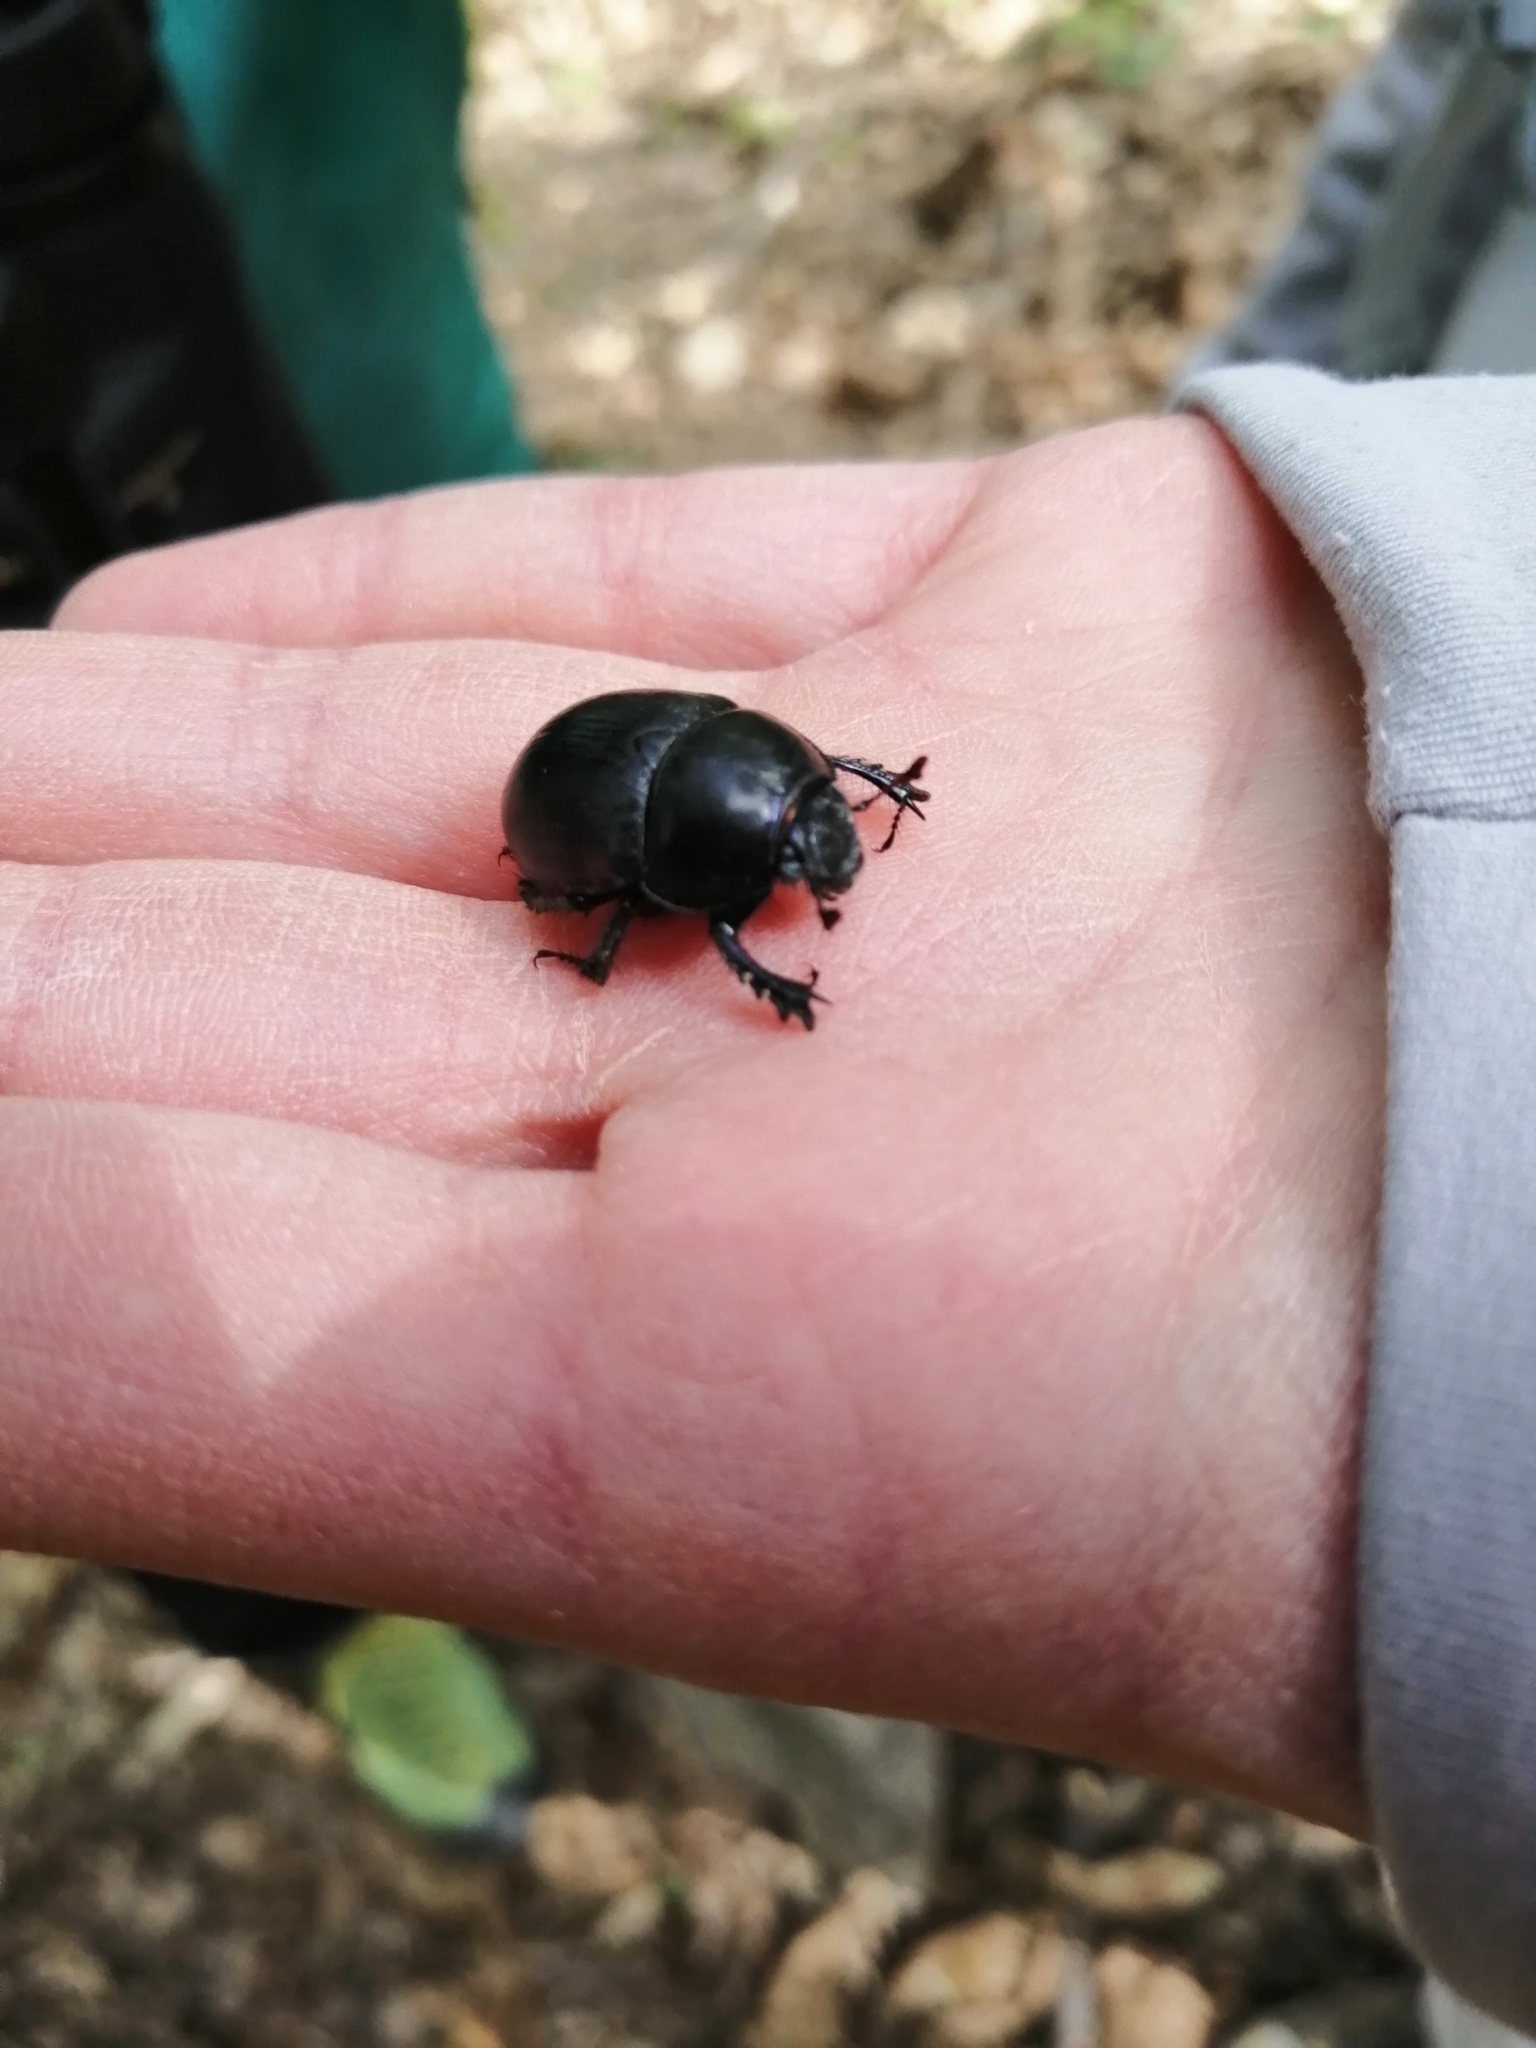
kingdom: Animalia
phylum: Arthropoda
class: Insecta
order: Coleoptera
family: Geotrupidae
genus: Anoplotrupes
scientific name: Anoplotrupes stercorosus
